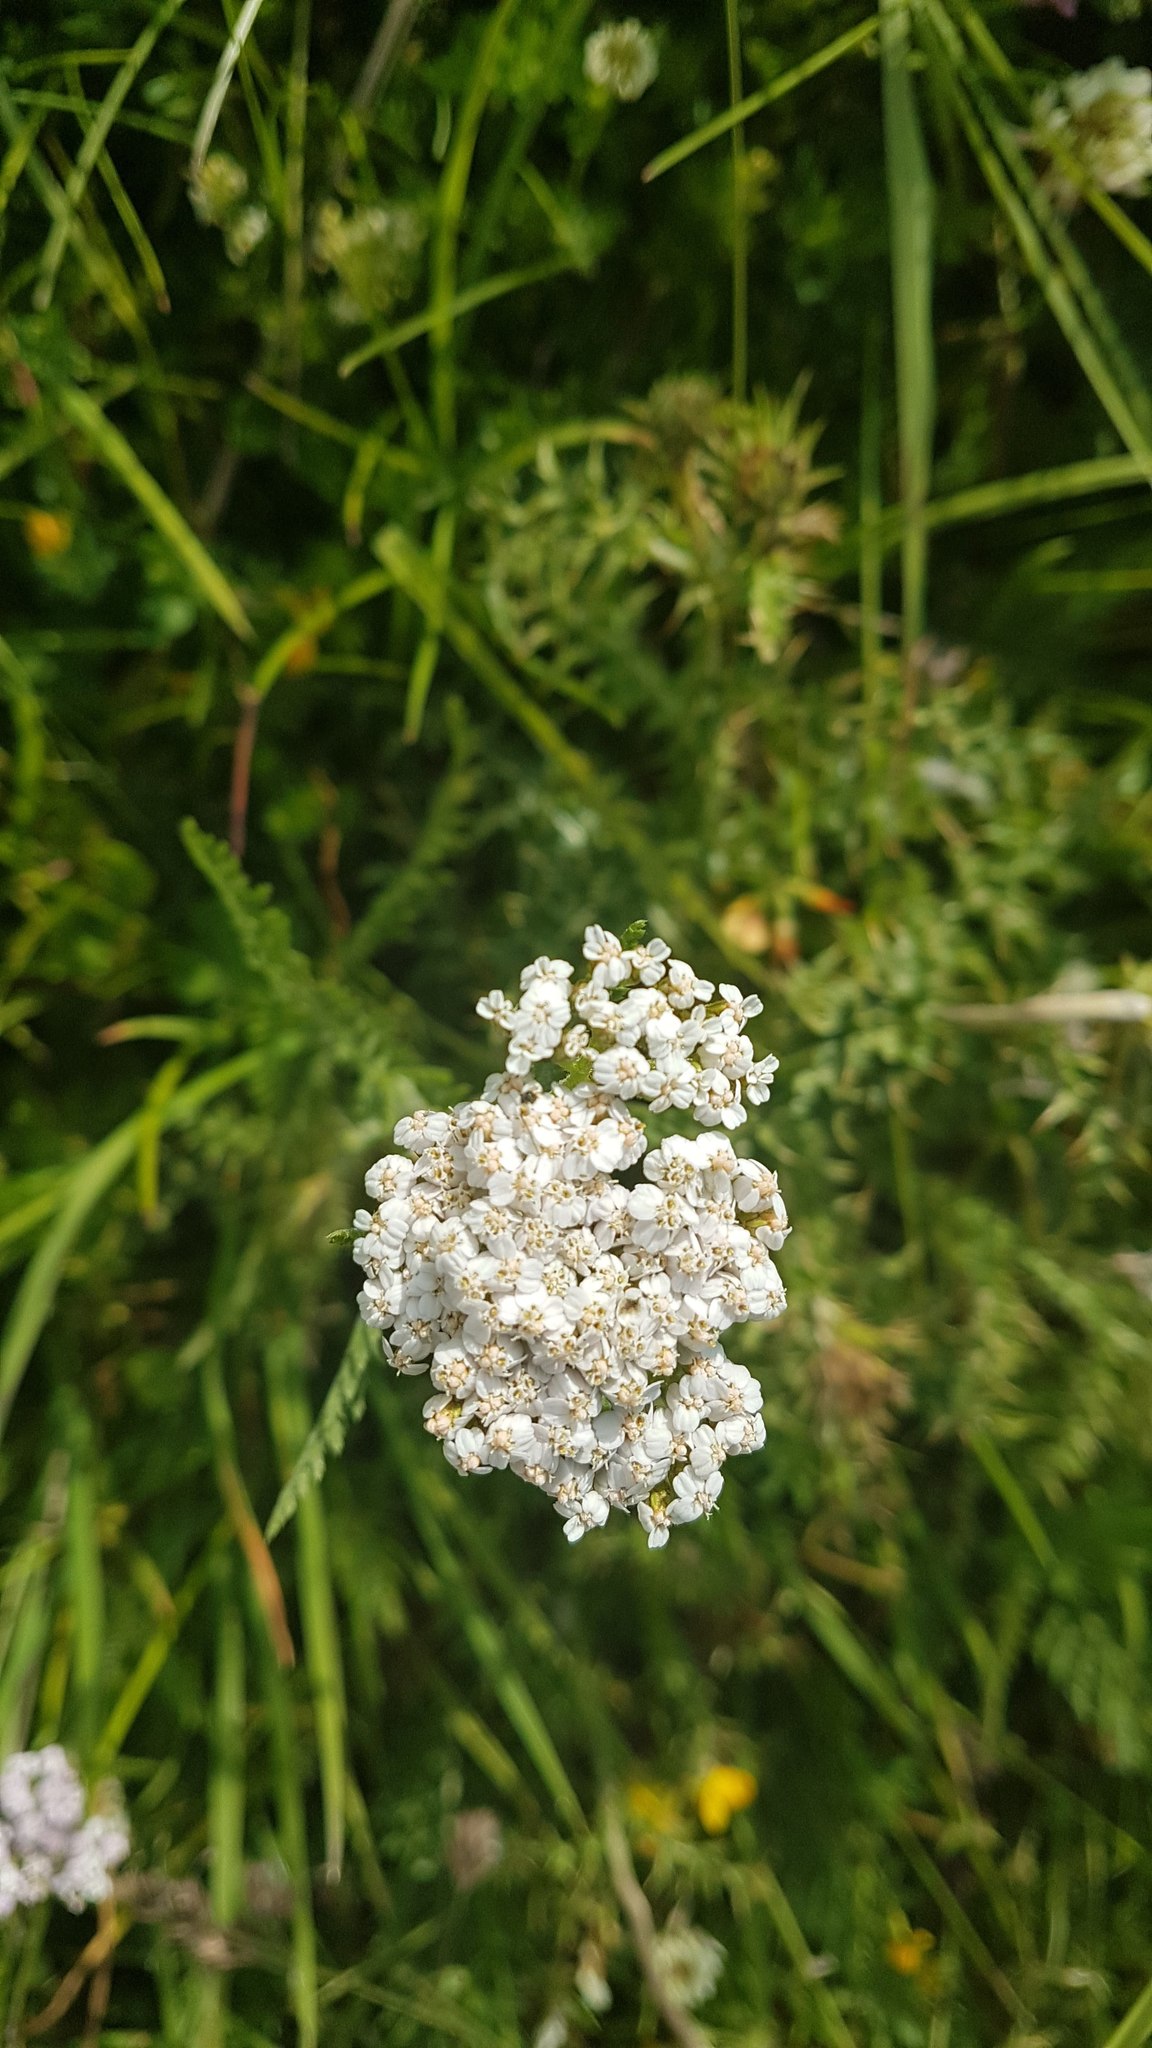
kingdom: Plantae
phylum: Tracheophyta
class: Magnoliopsida
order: Asterales
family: Asteraceae
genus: Achillea
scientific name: Achillea millefolium
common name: Yarrow
